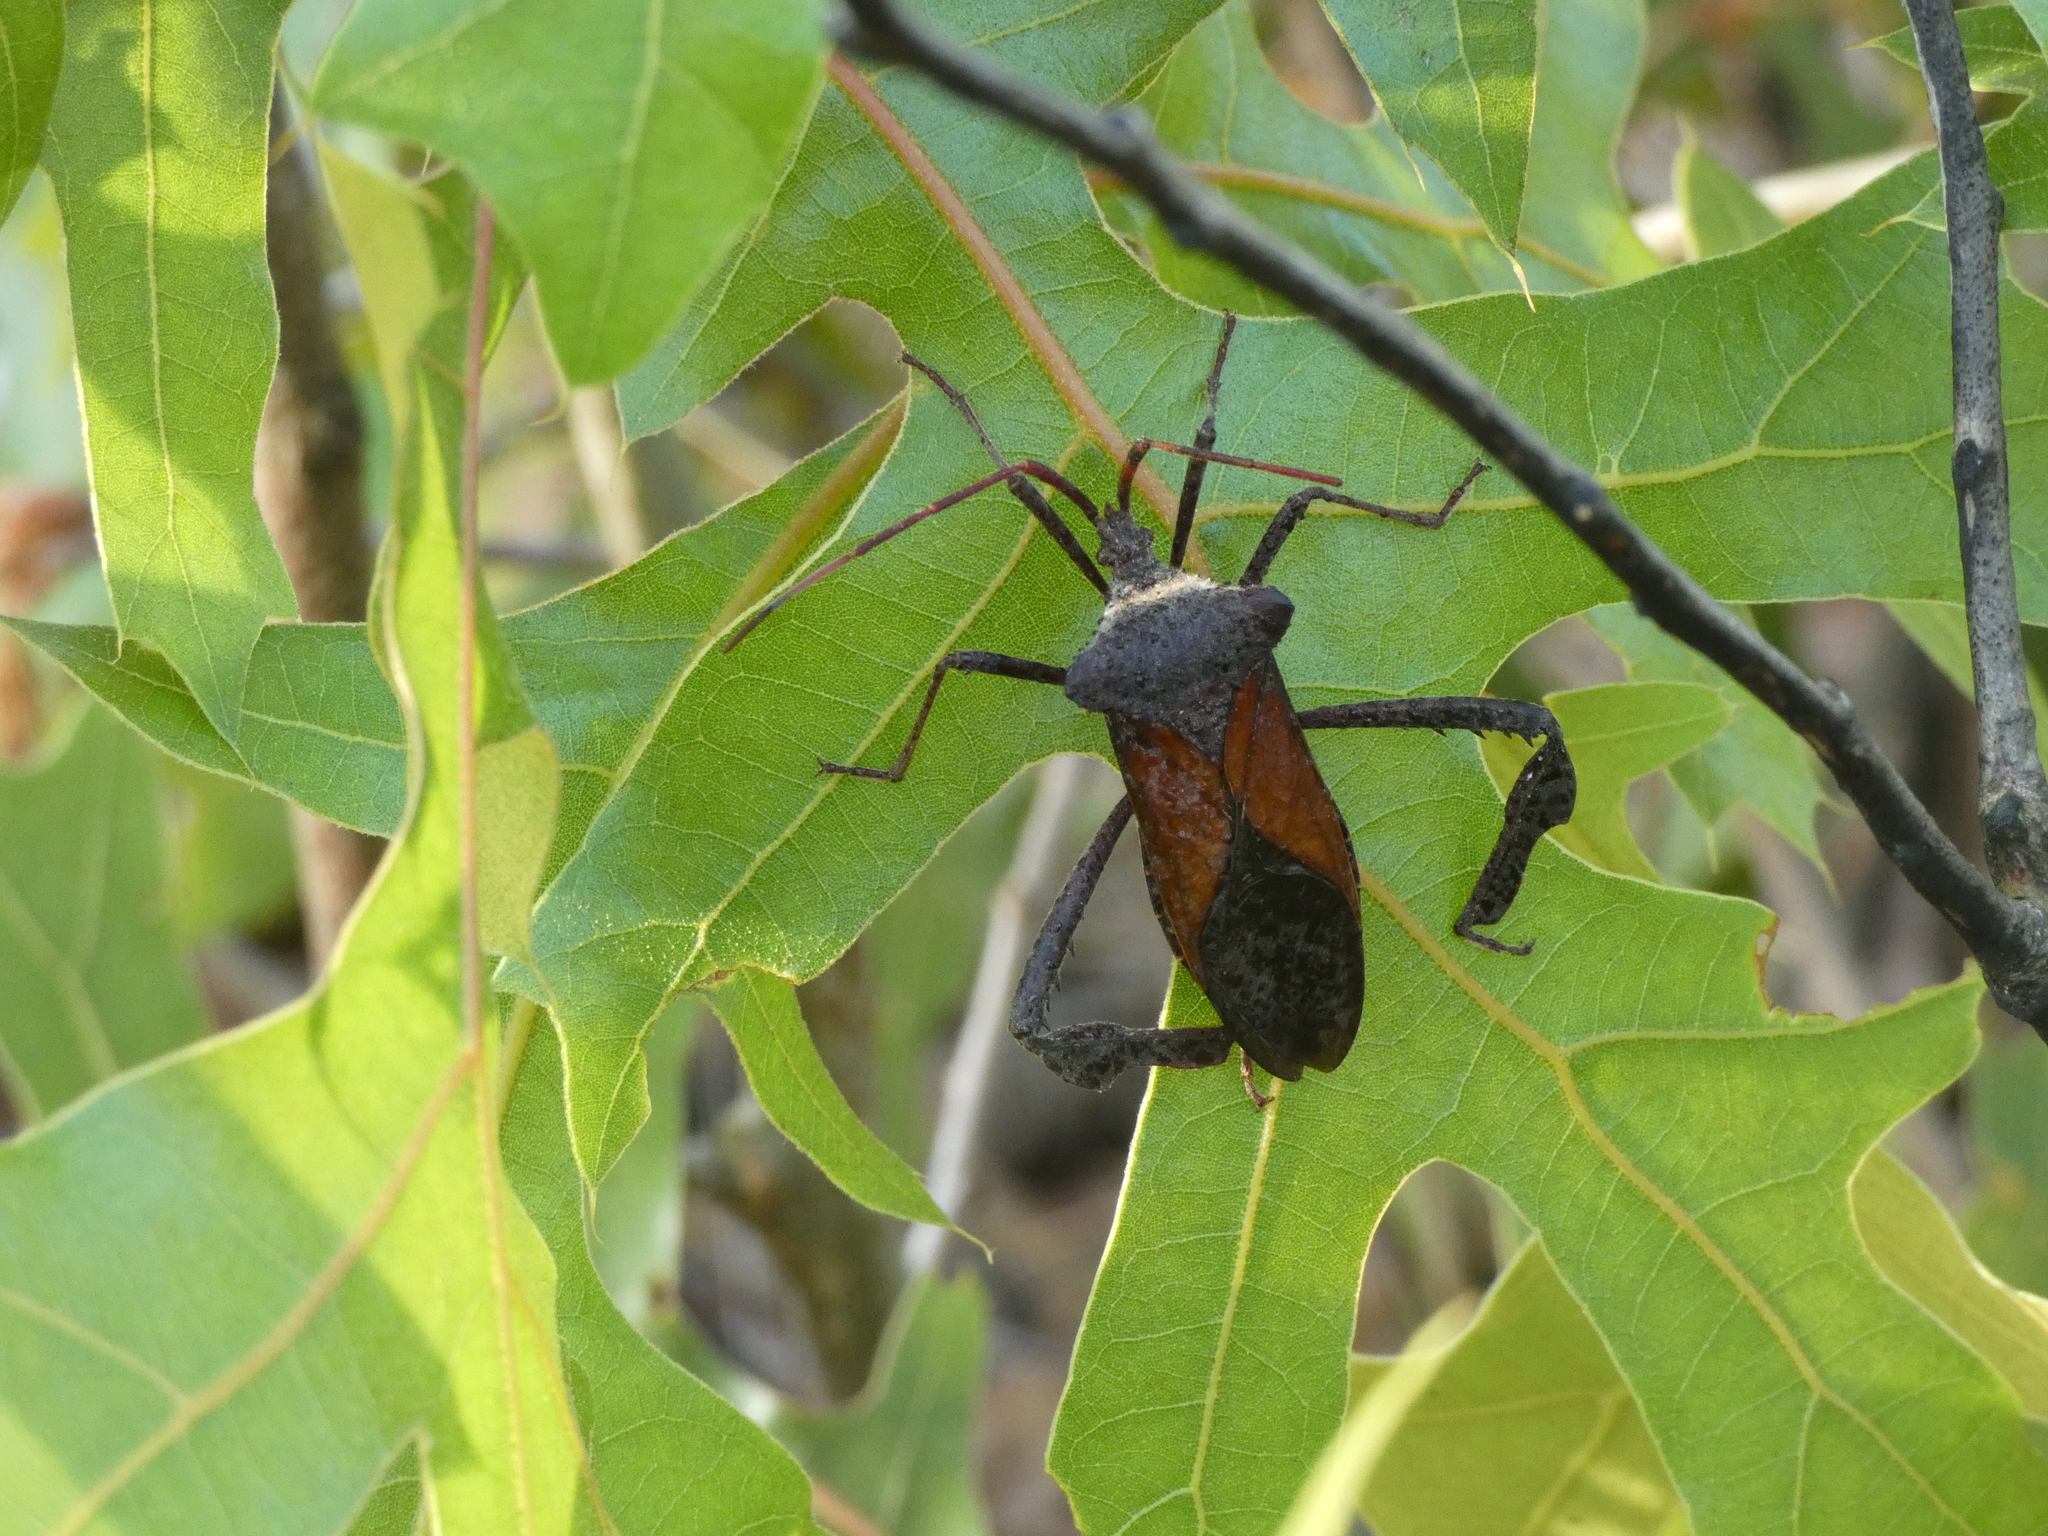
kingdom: Animalia
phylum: Arthropoda
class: Insecta
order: Hemiptera
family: Coreidae
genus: Acanthocephala
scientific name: Acanthocephala declivis
